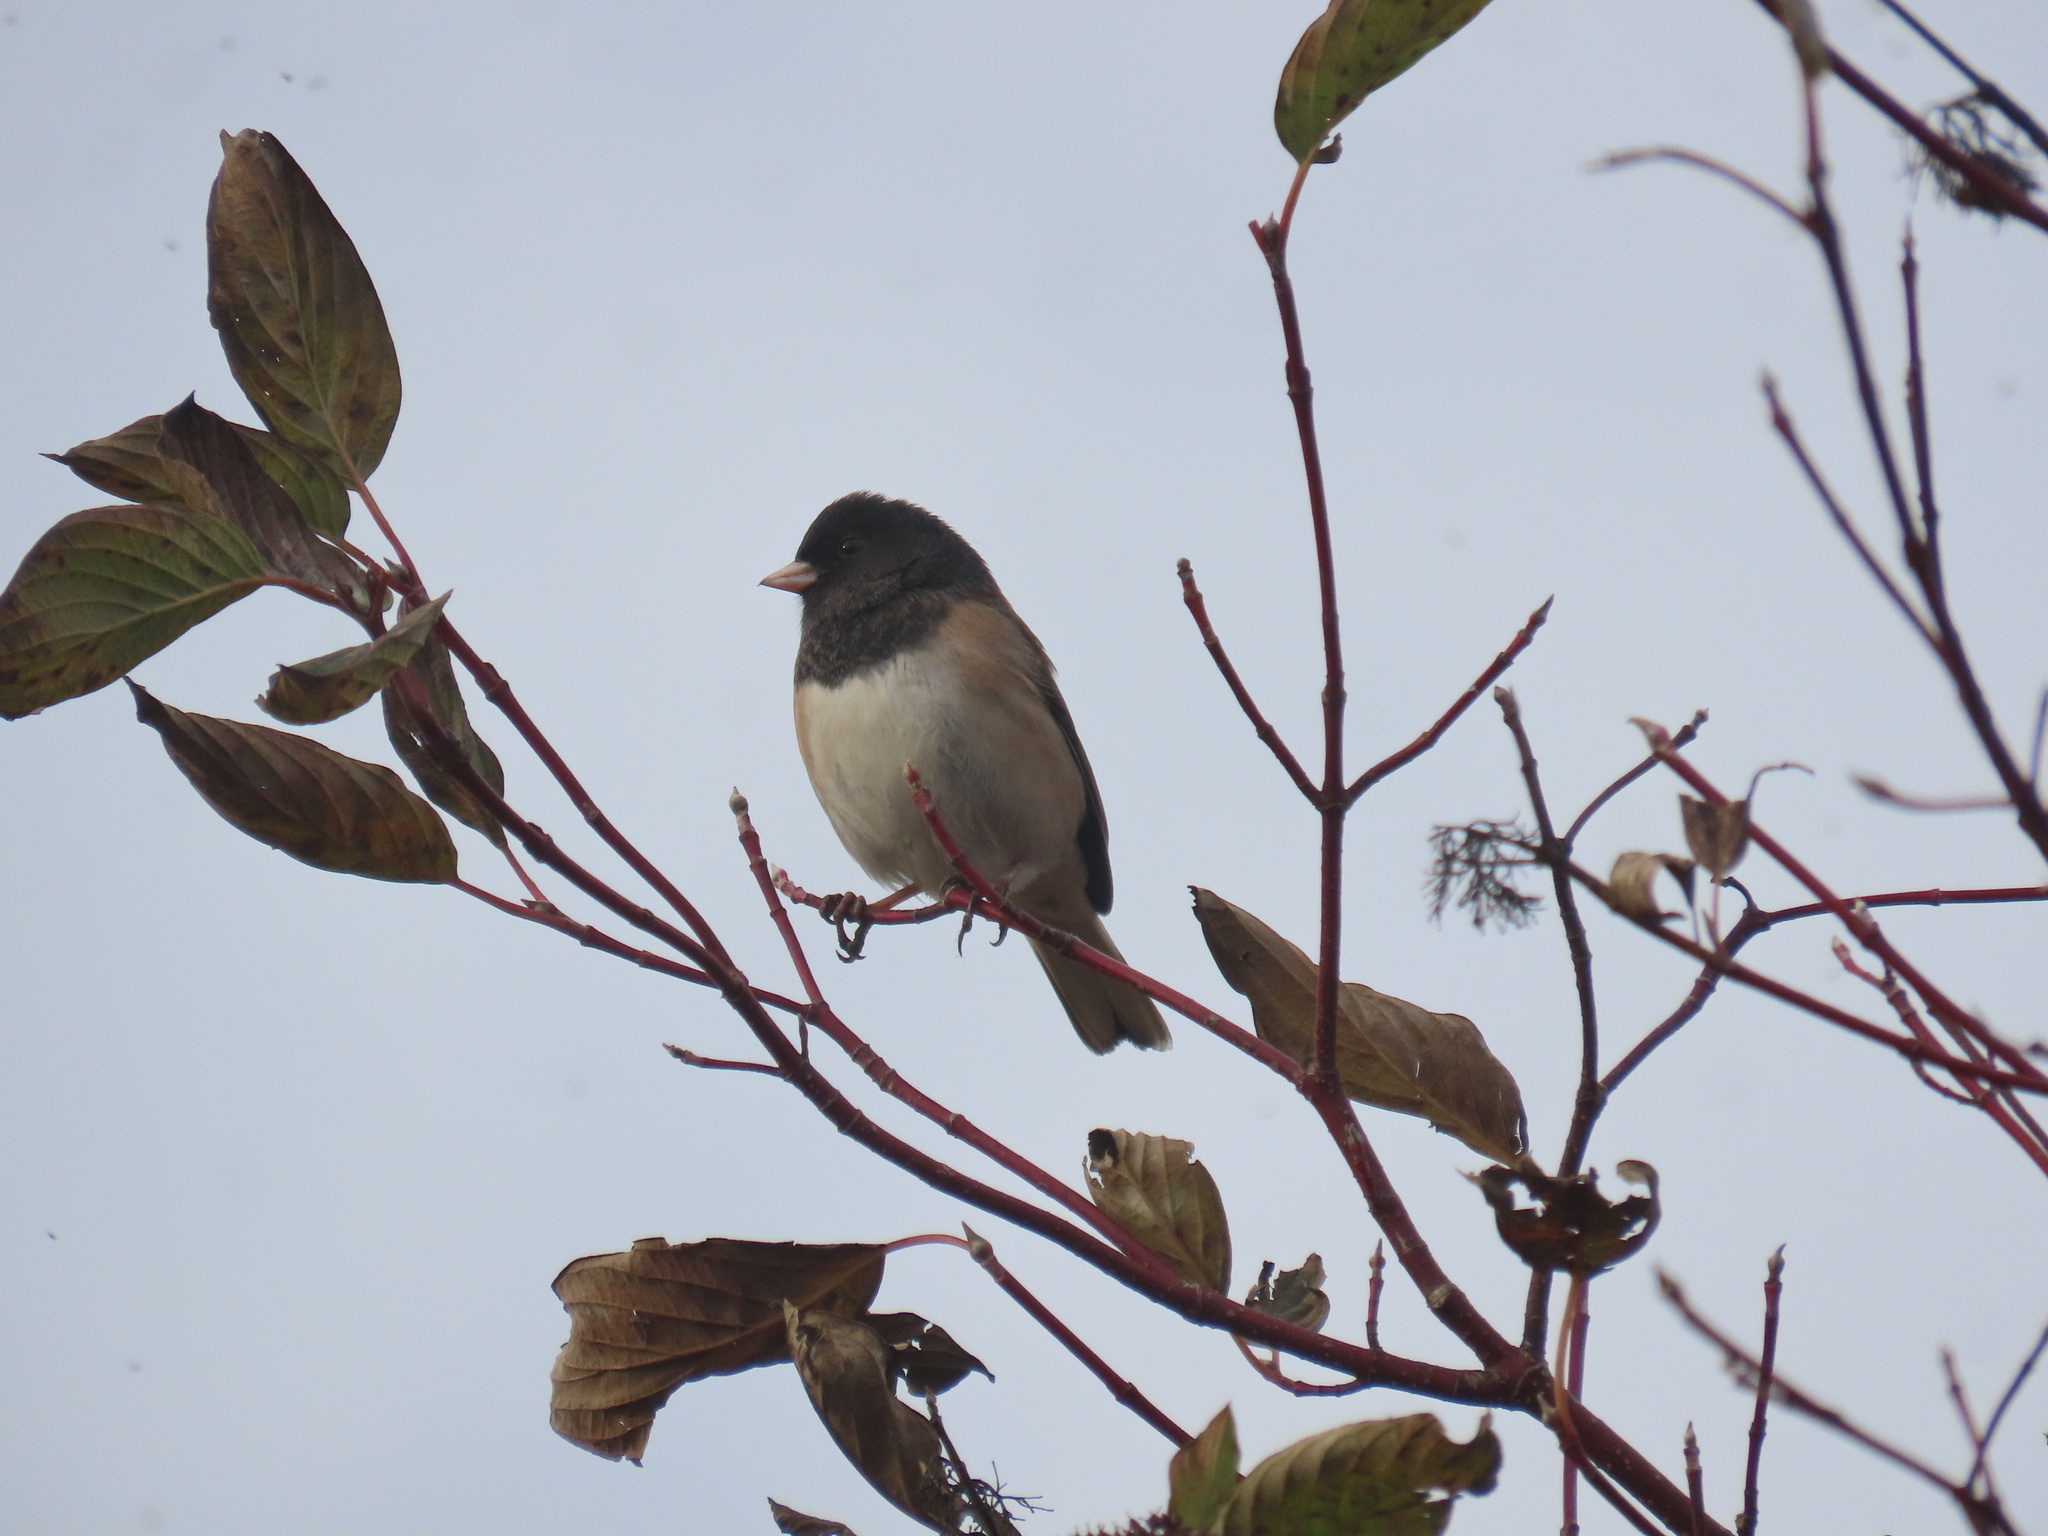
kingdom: Animalia
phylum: Chordata
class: Aves
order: Passeriformes
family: Passerellidae
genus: Junco
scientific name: Junco hyemalis
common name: Dark-eyed junco
